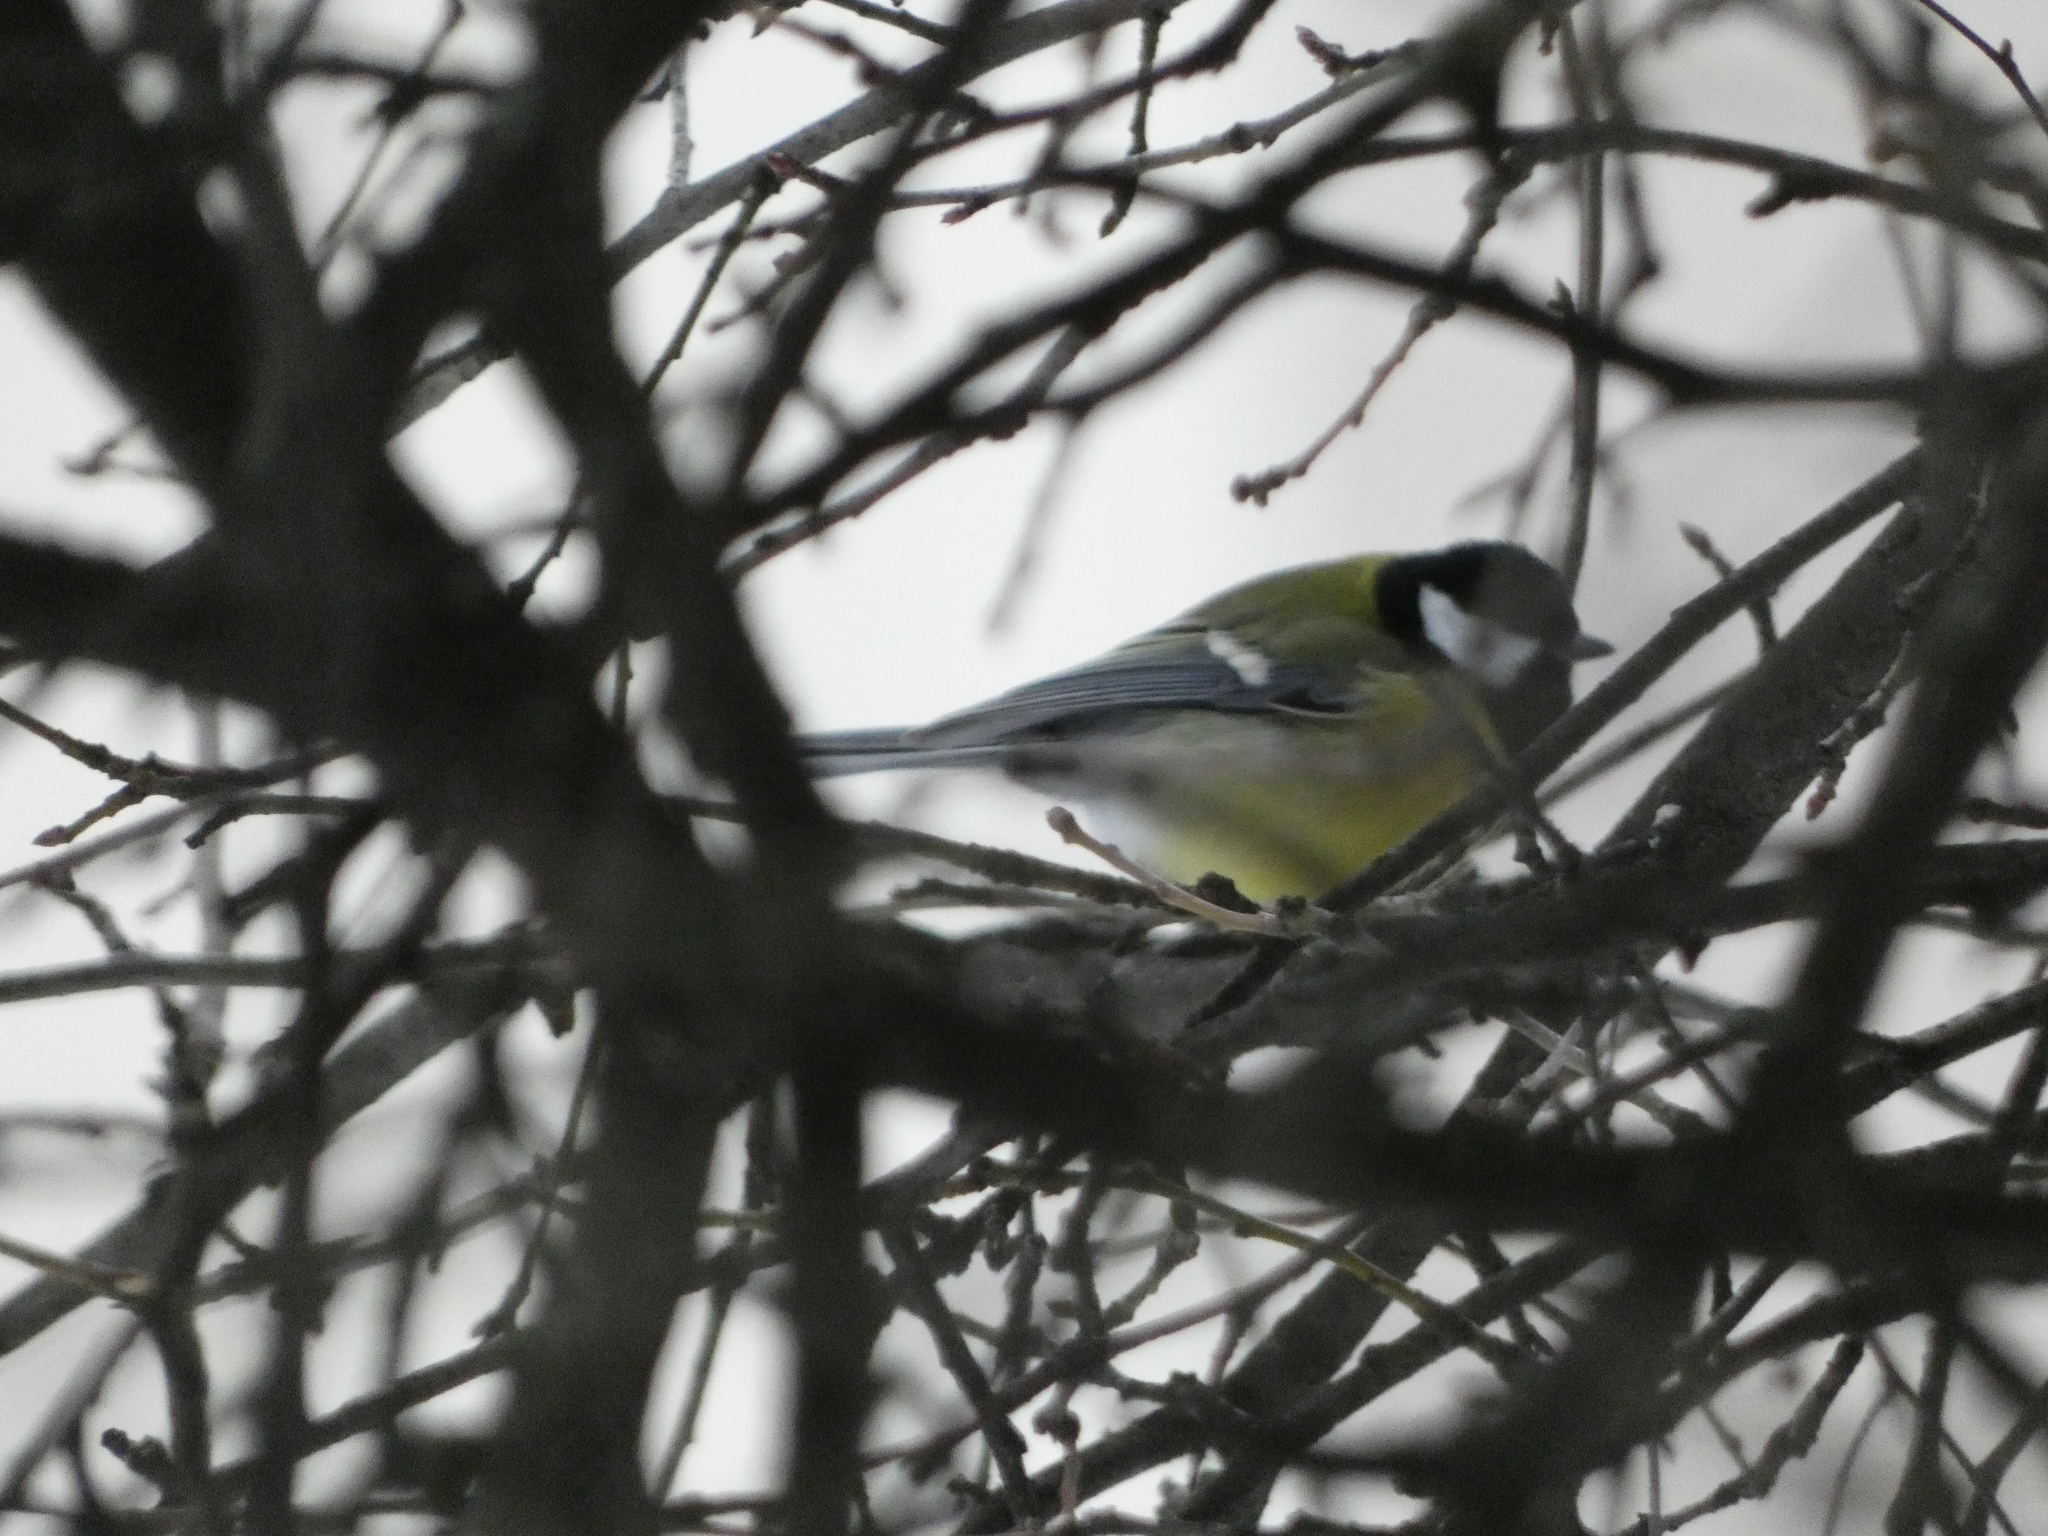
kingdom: Animalia
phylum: Chordata
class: Aves
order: Passeriformes
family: Paridae
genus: Parus
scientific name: Parus major
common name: Great tit
